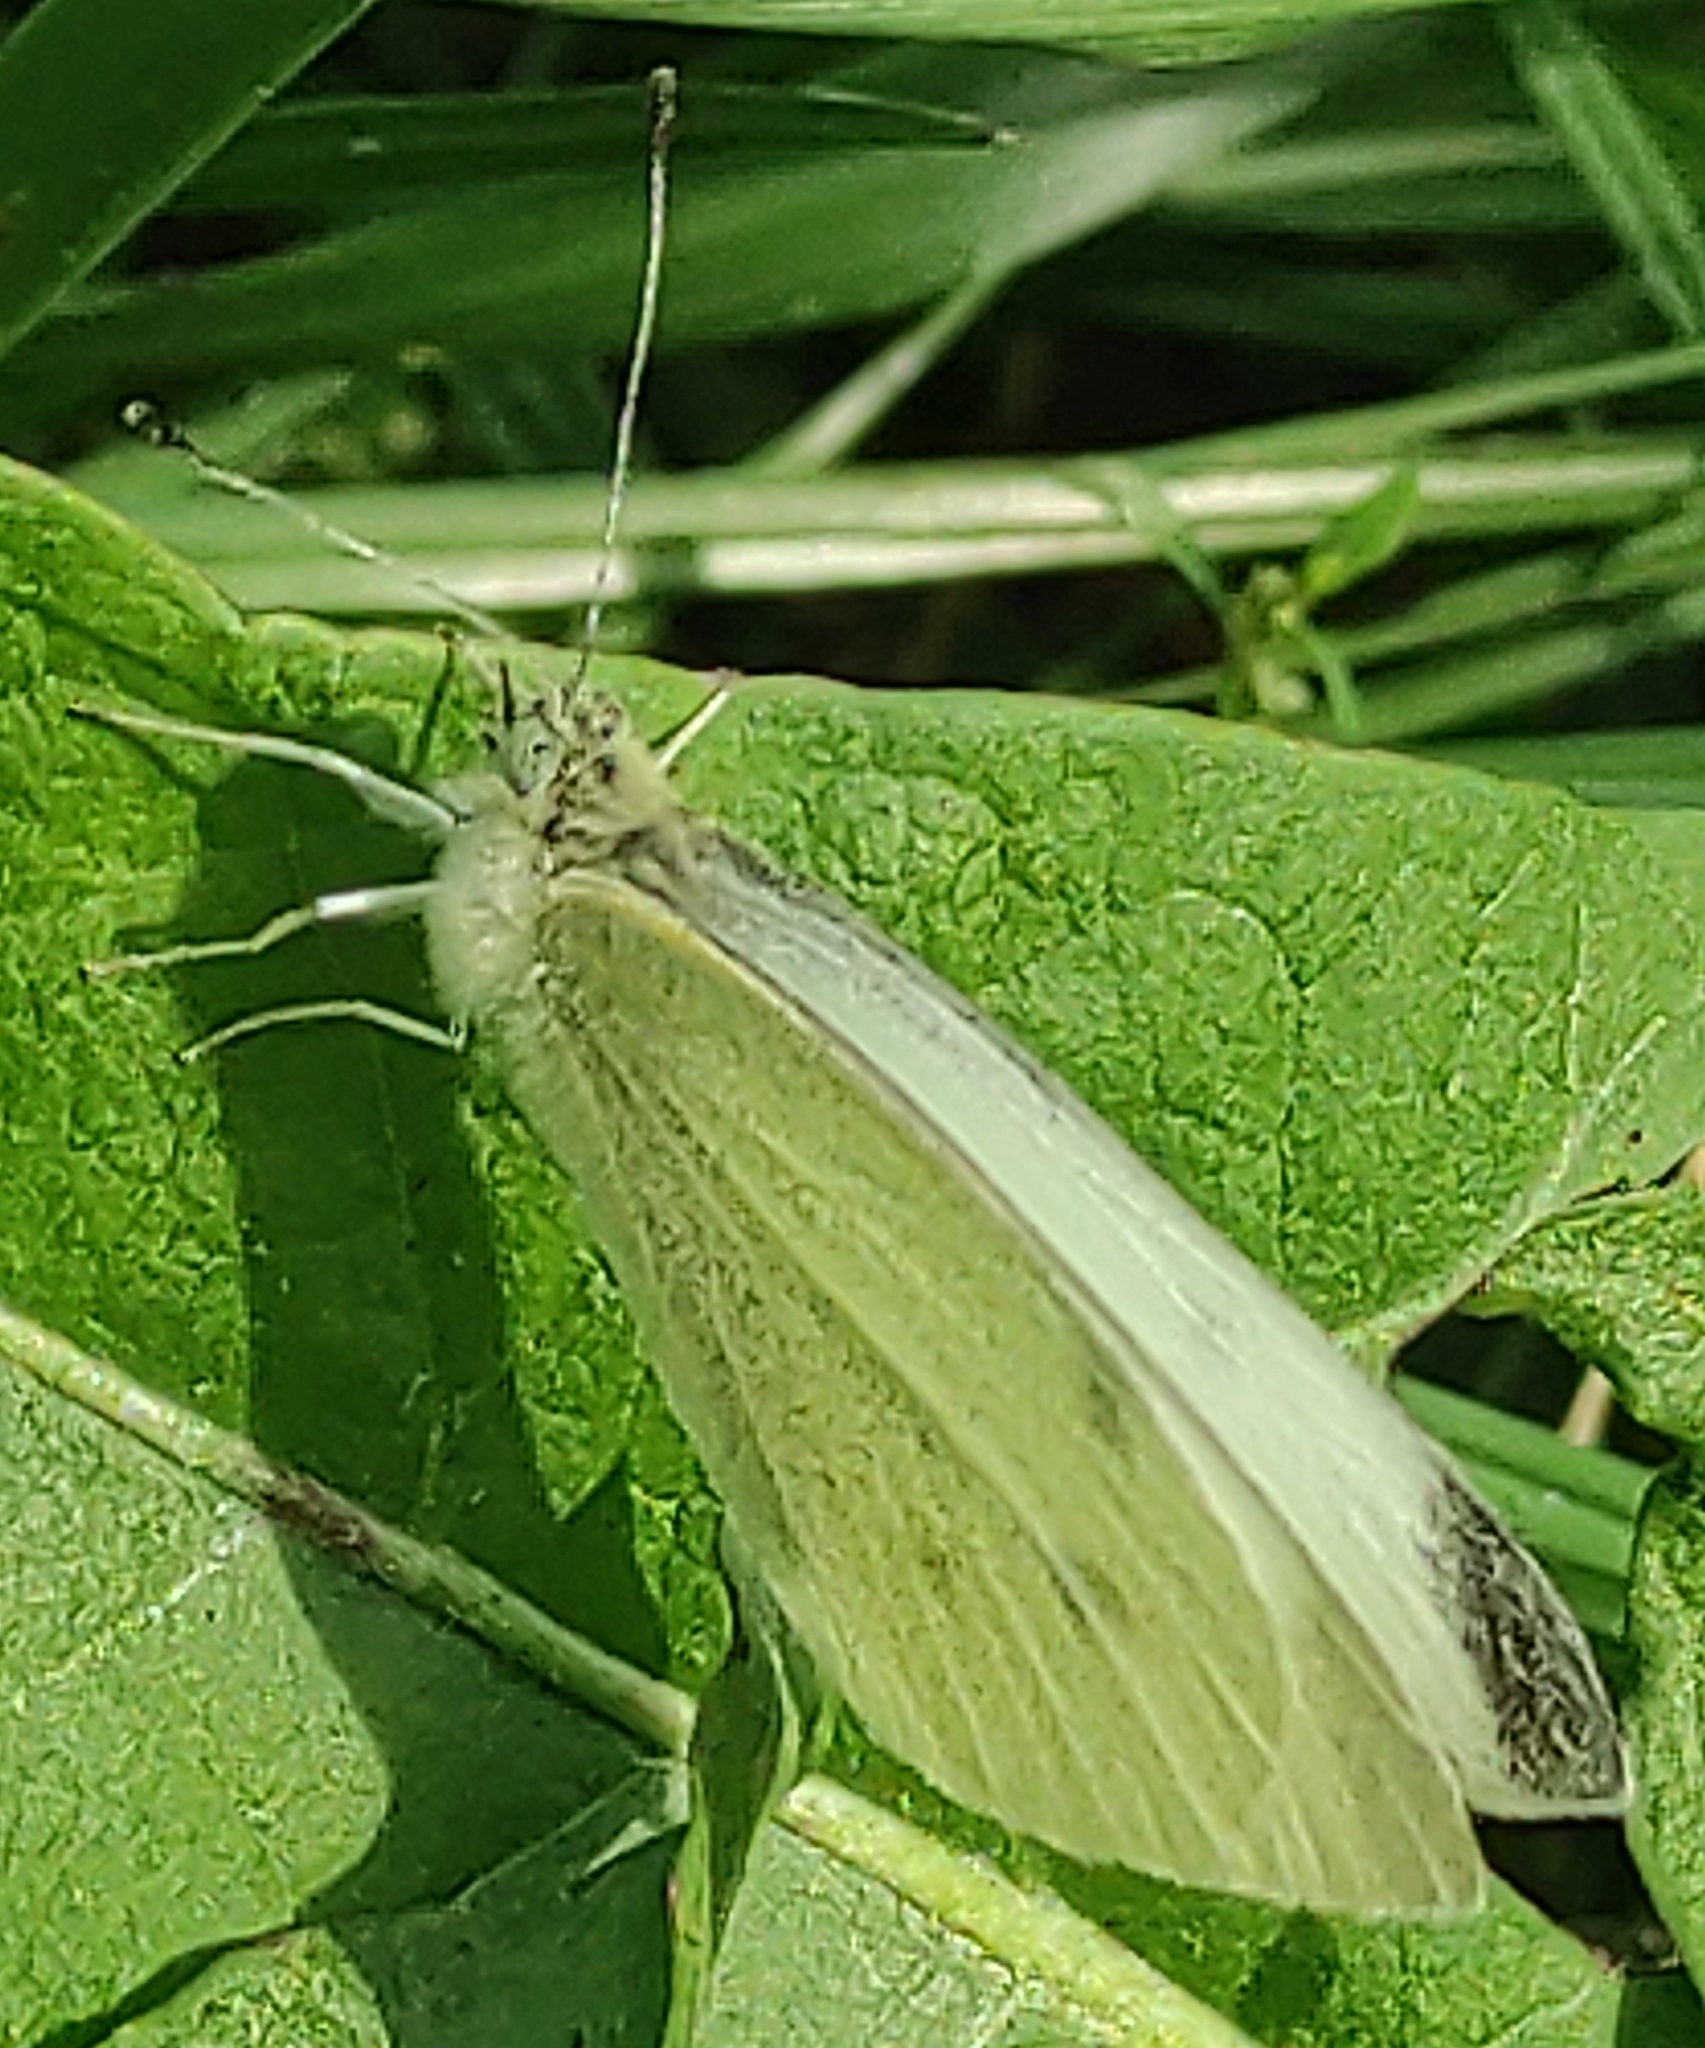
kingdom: Animalia
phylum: Arthropoda
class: Insecta
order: Lepidoptera
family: Pieridae
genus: Pieris
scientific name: Pieris rapae
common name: Small white
